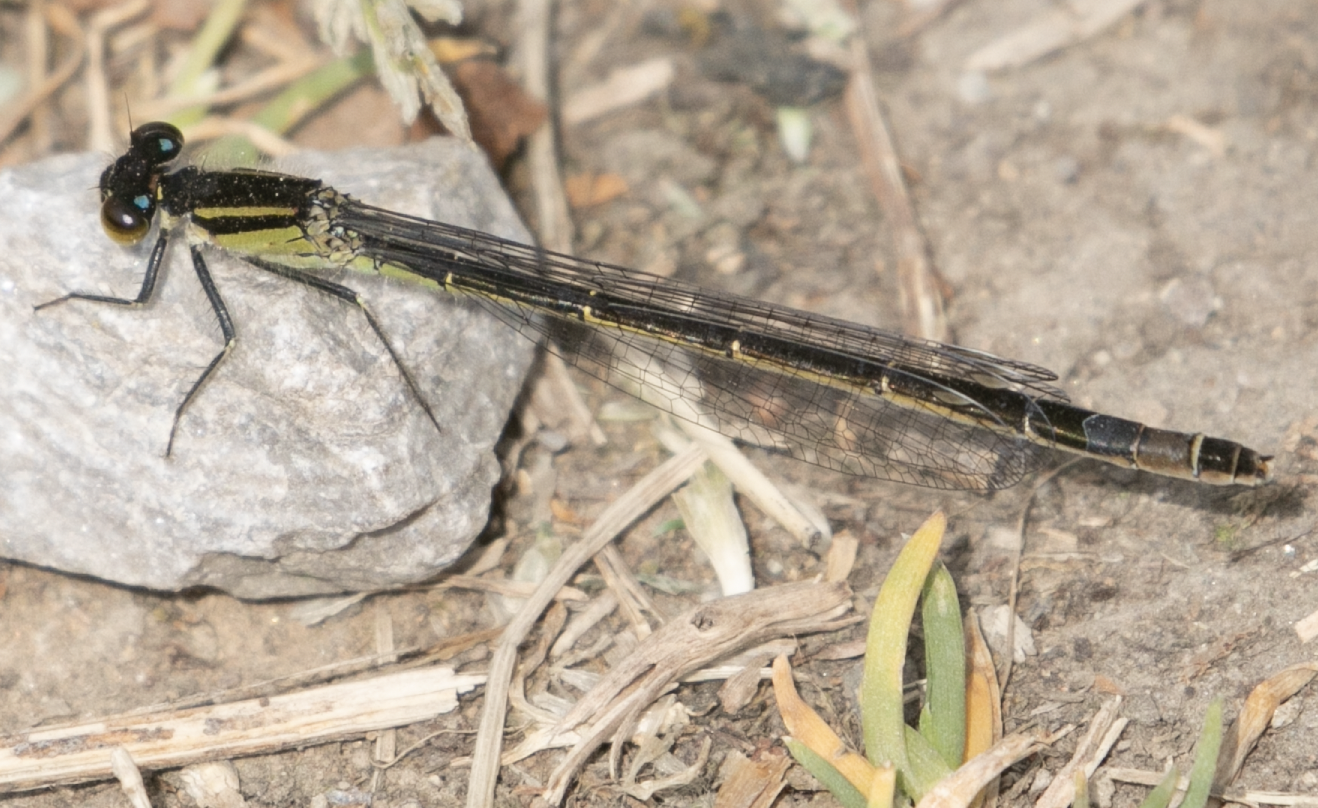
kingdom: Animalia
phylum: Arthropoda
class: Insecta
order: Odonata
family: Coenagrionidae
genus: Ischnura
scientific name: Ischnura elegans
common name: Blue-tailed damselfly
